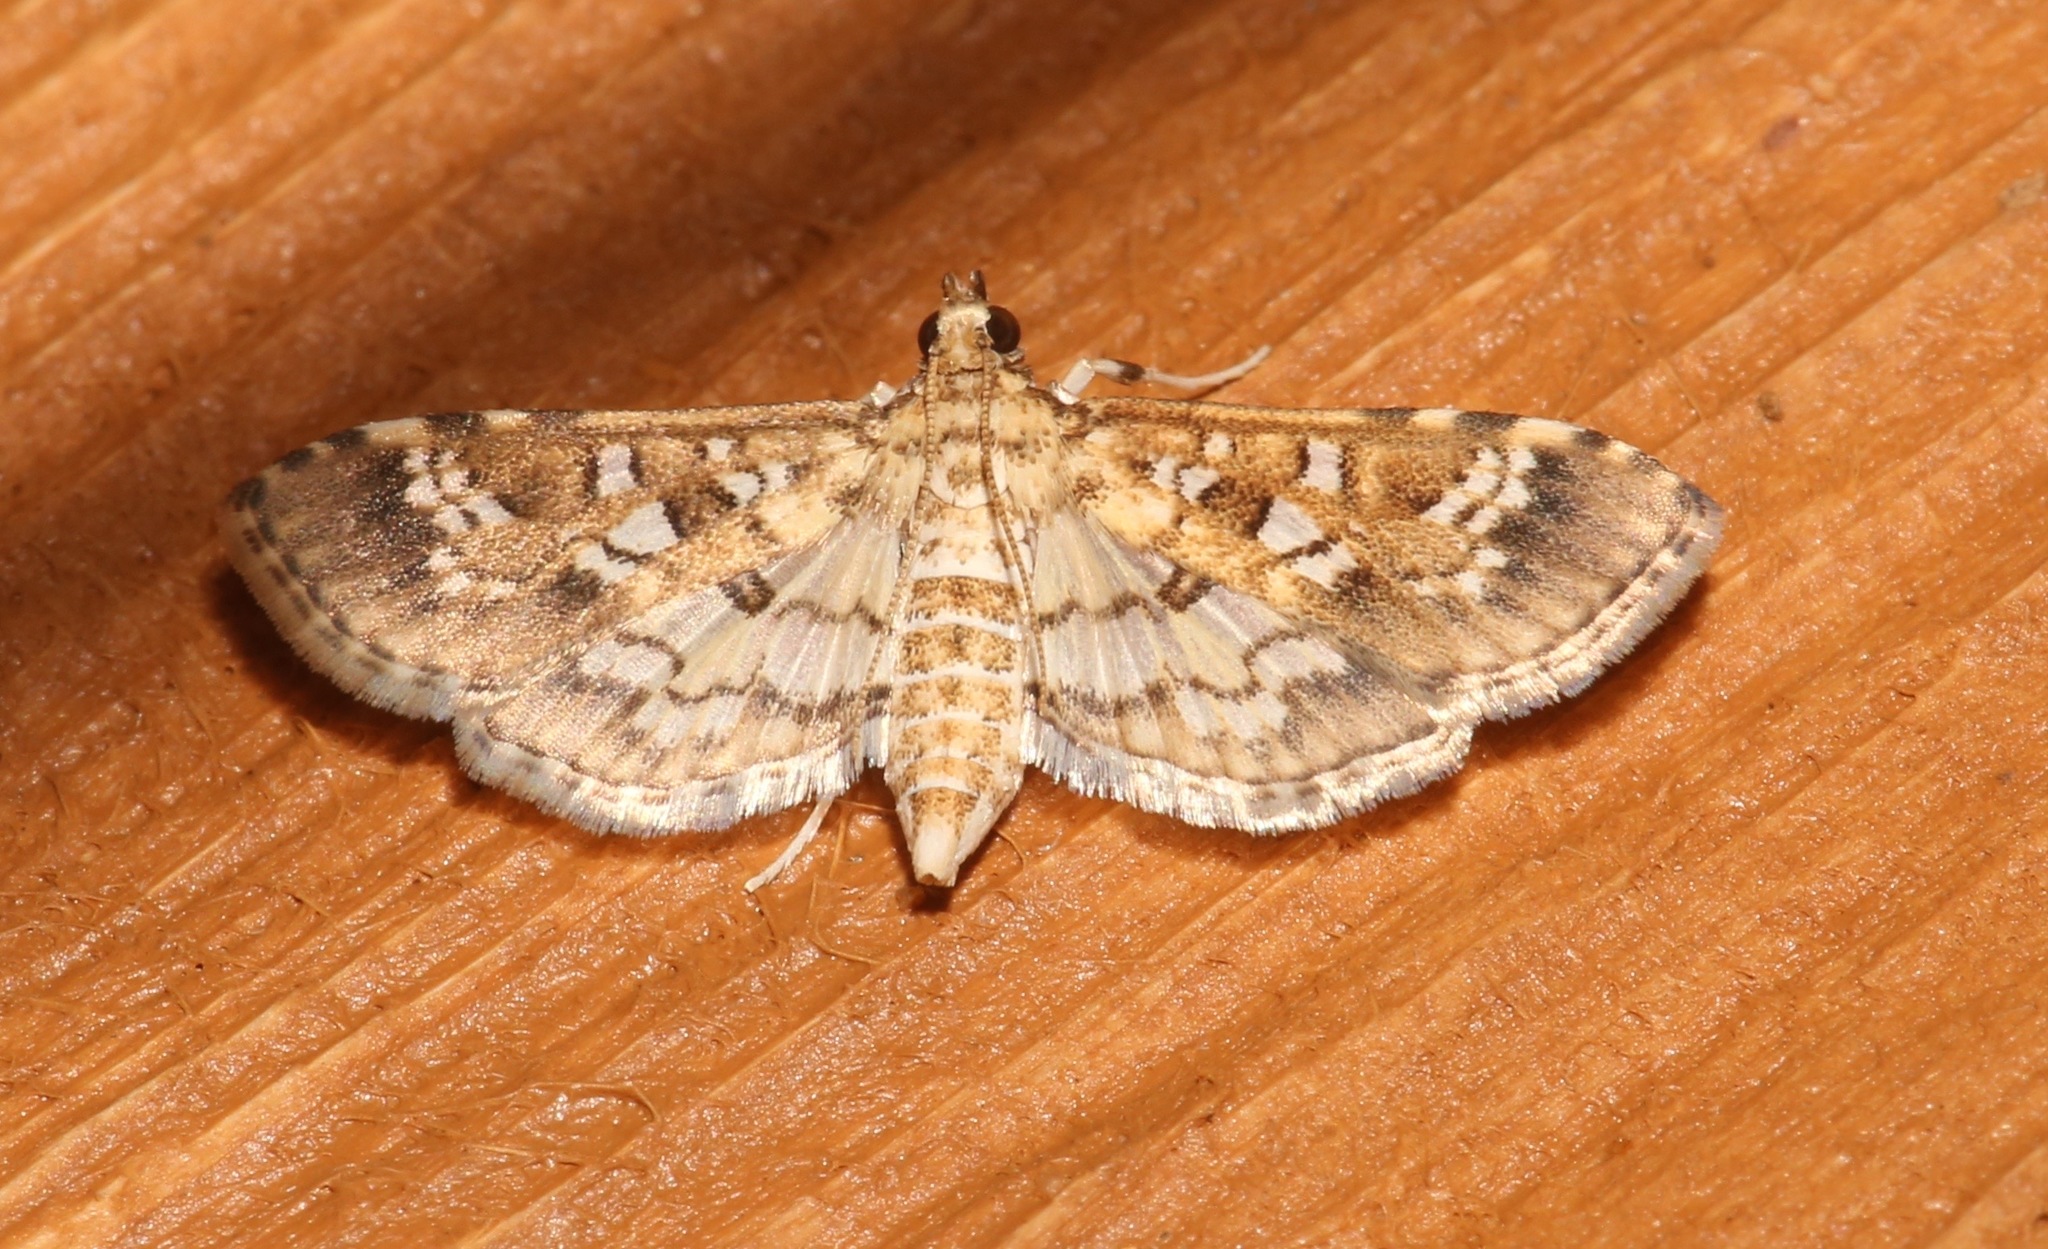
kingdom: Animalia
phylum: Arthropoda
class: Insecta
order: Lepidoptera
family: Crambidae
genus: Samea
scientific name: Samea multiplicalis
